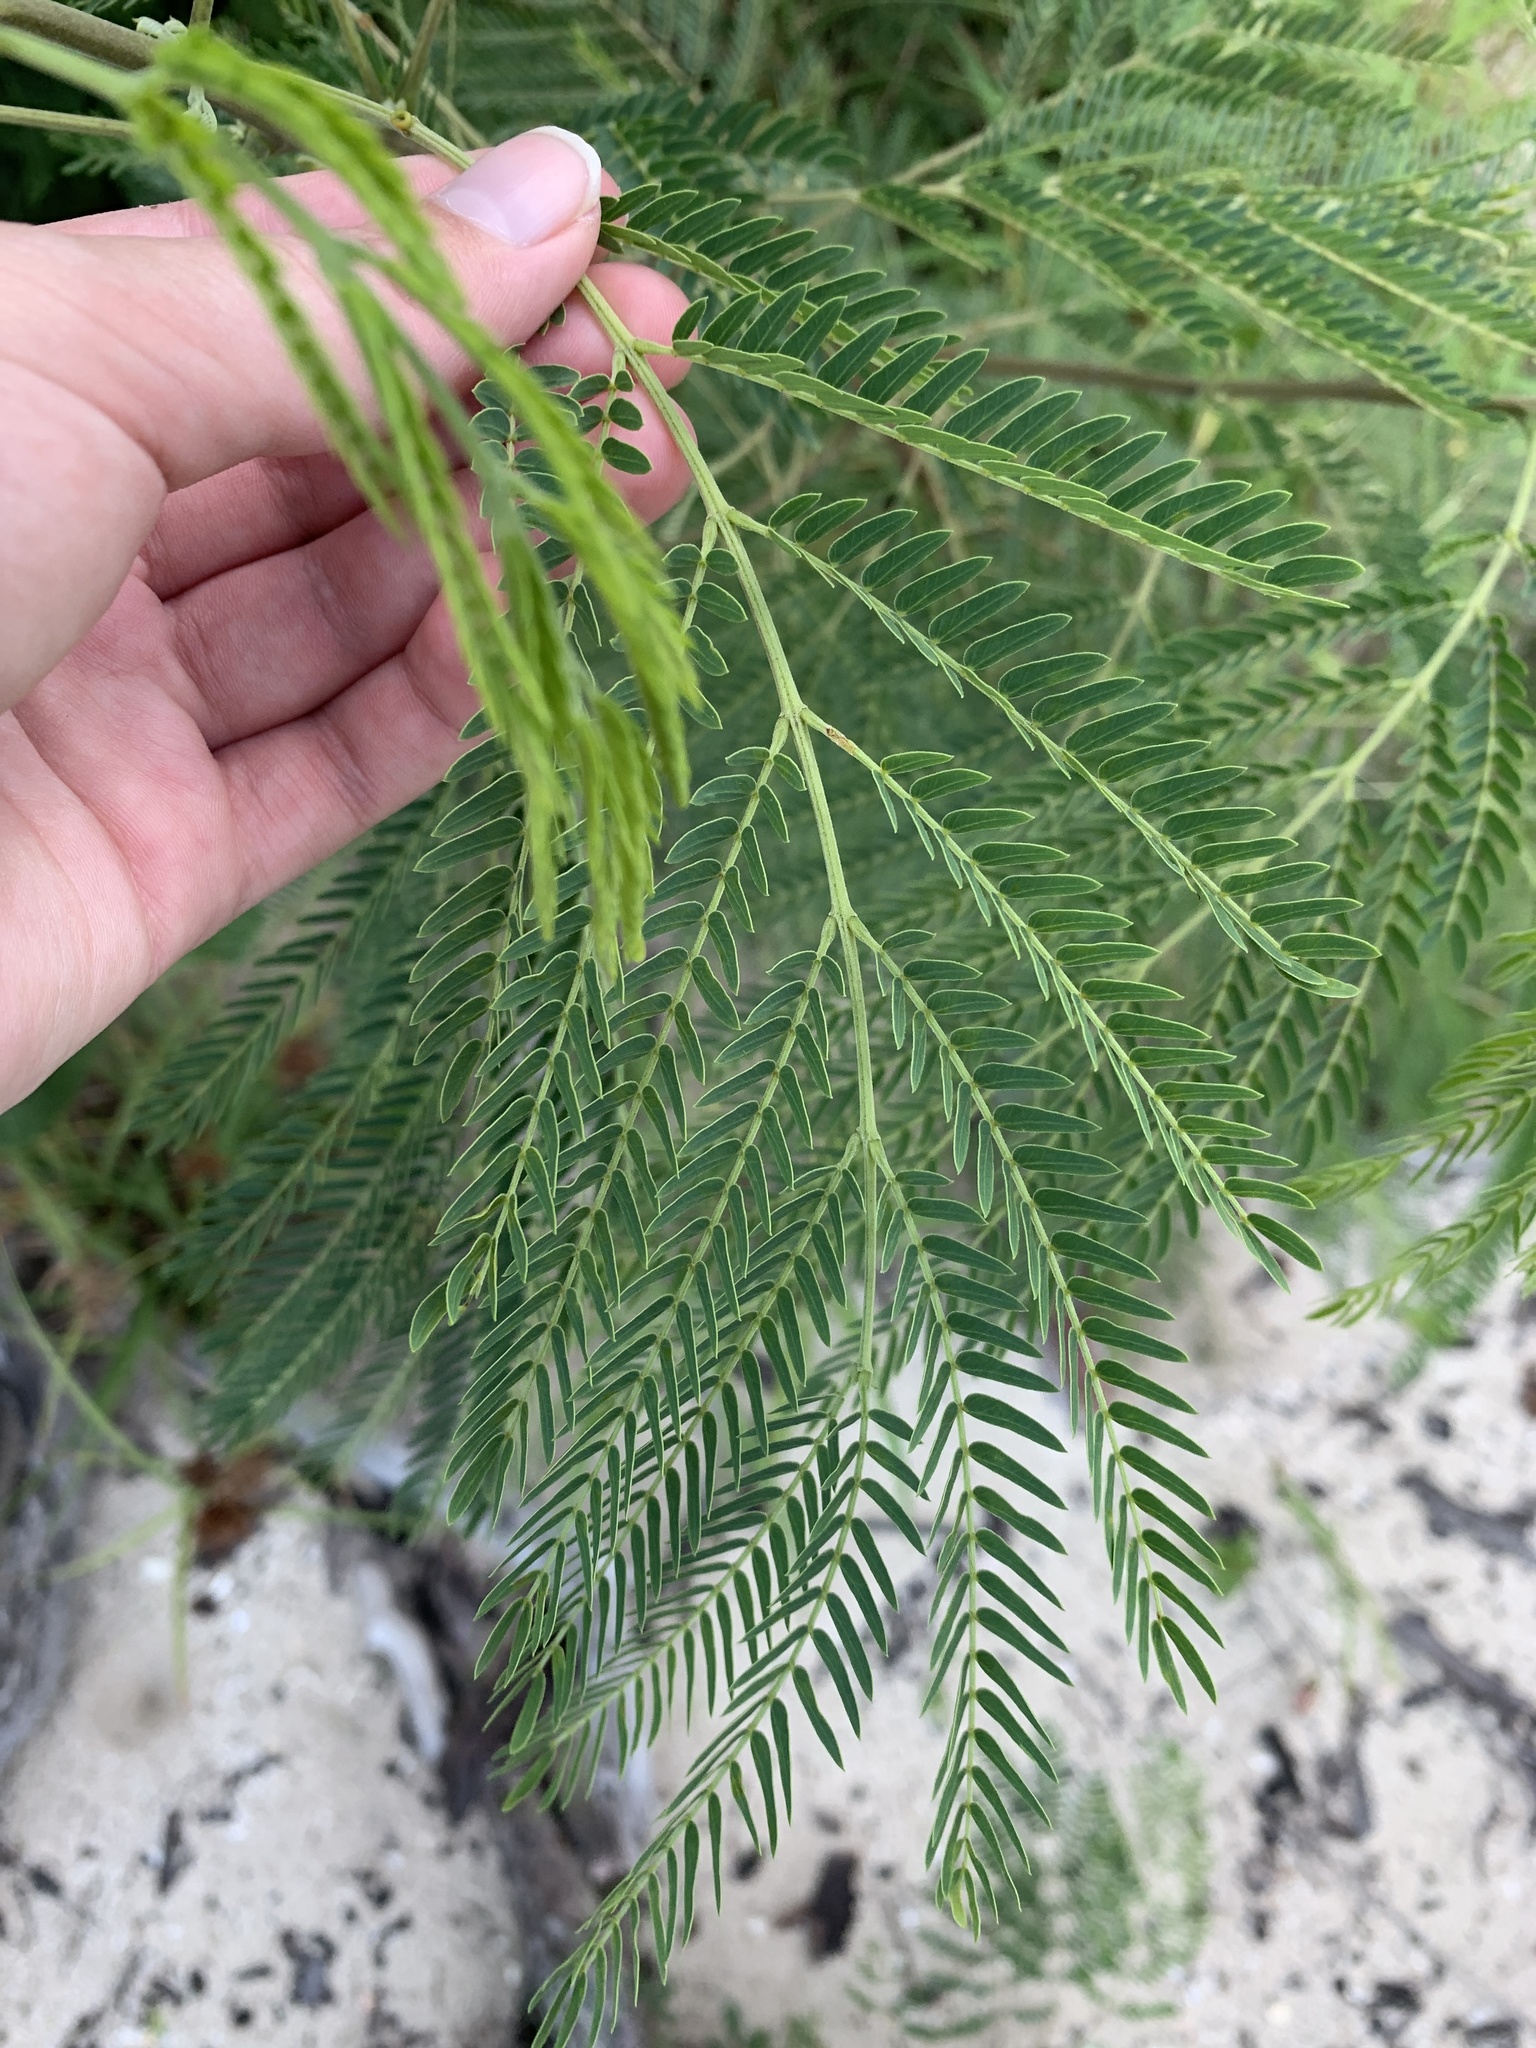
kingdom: Plantae
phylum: Tracheophyta
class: Magnoliopsida
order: Fabales
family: Fabaceae
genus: Leucaena
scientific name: Leucaena leucocephala
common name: White leadtree
